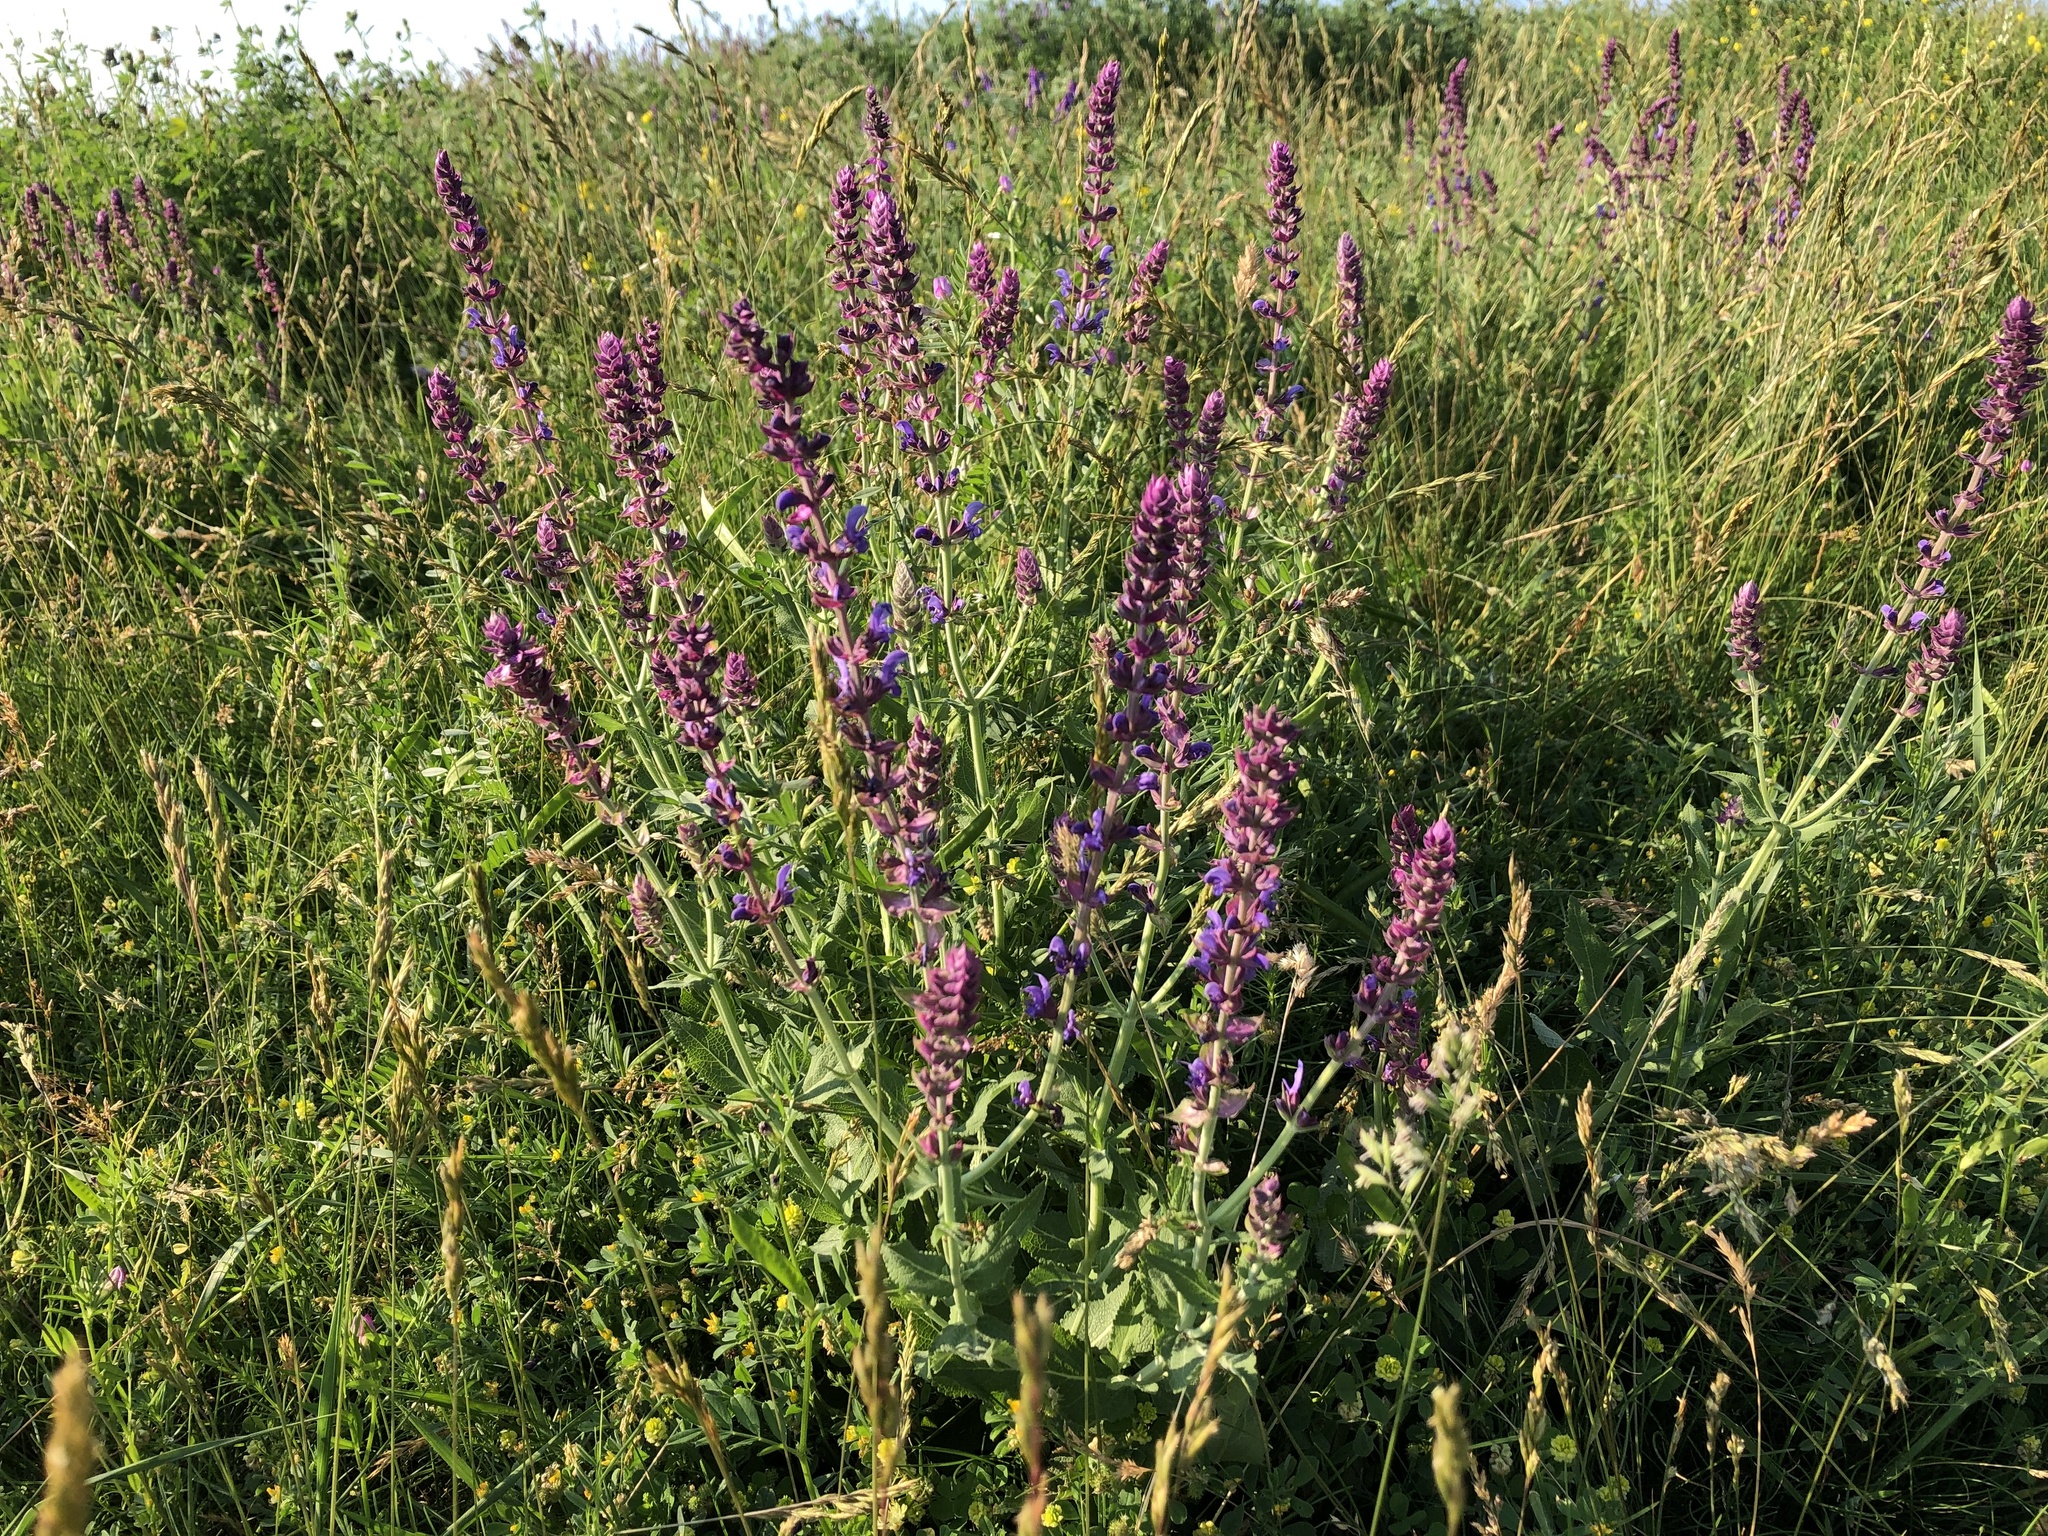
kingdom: Plantae
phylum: Tracheophyta
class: Magnoliopsida
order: Lamiales
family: Lamiaceae
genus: Salvia
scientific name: Salvia nemorosa
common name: Balkan clary
